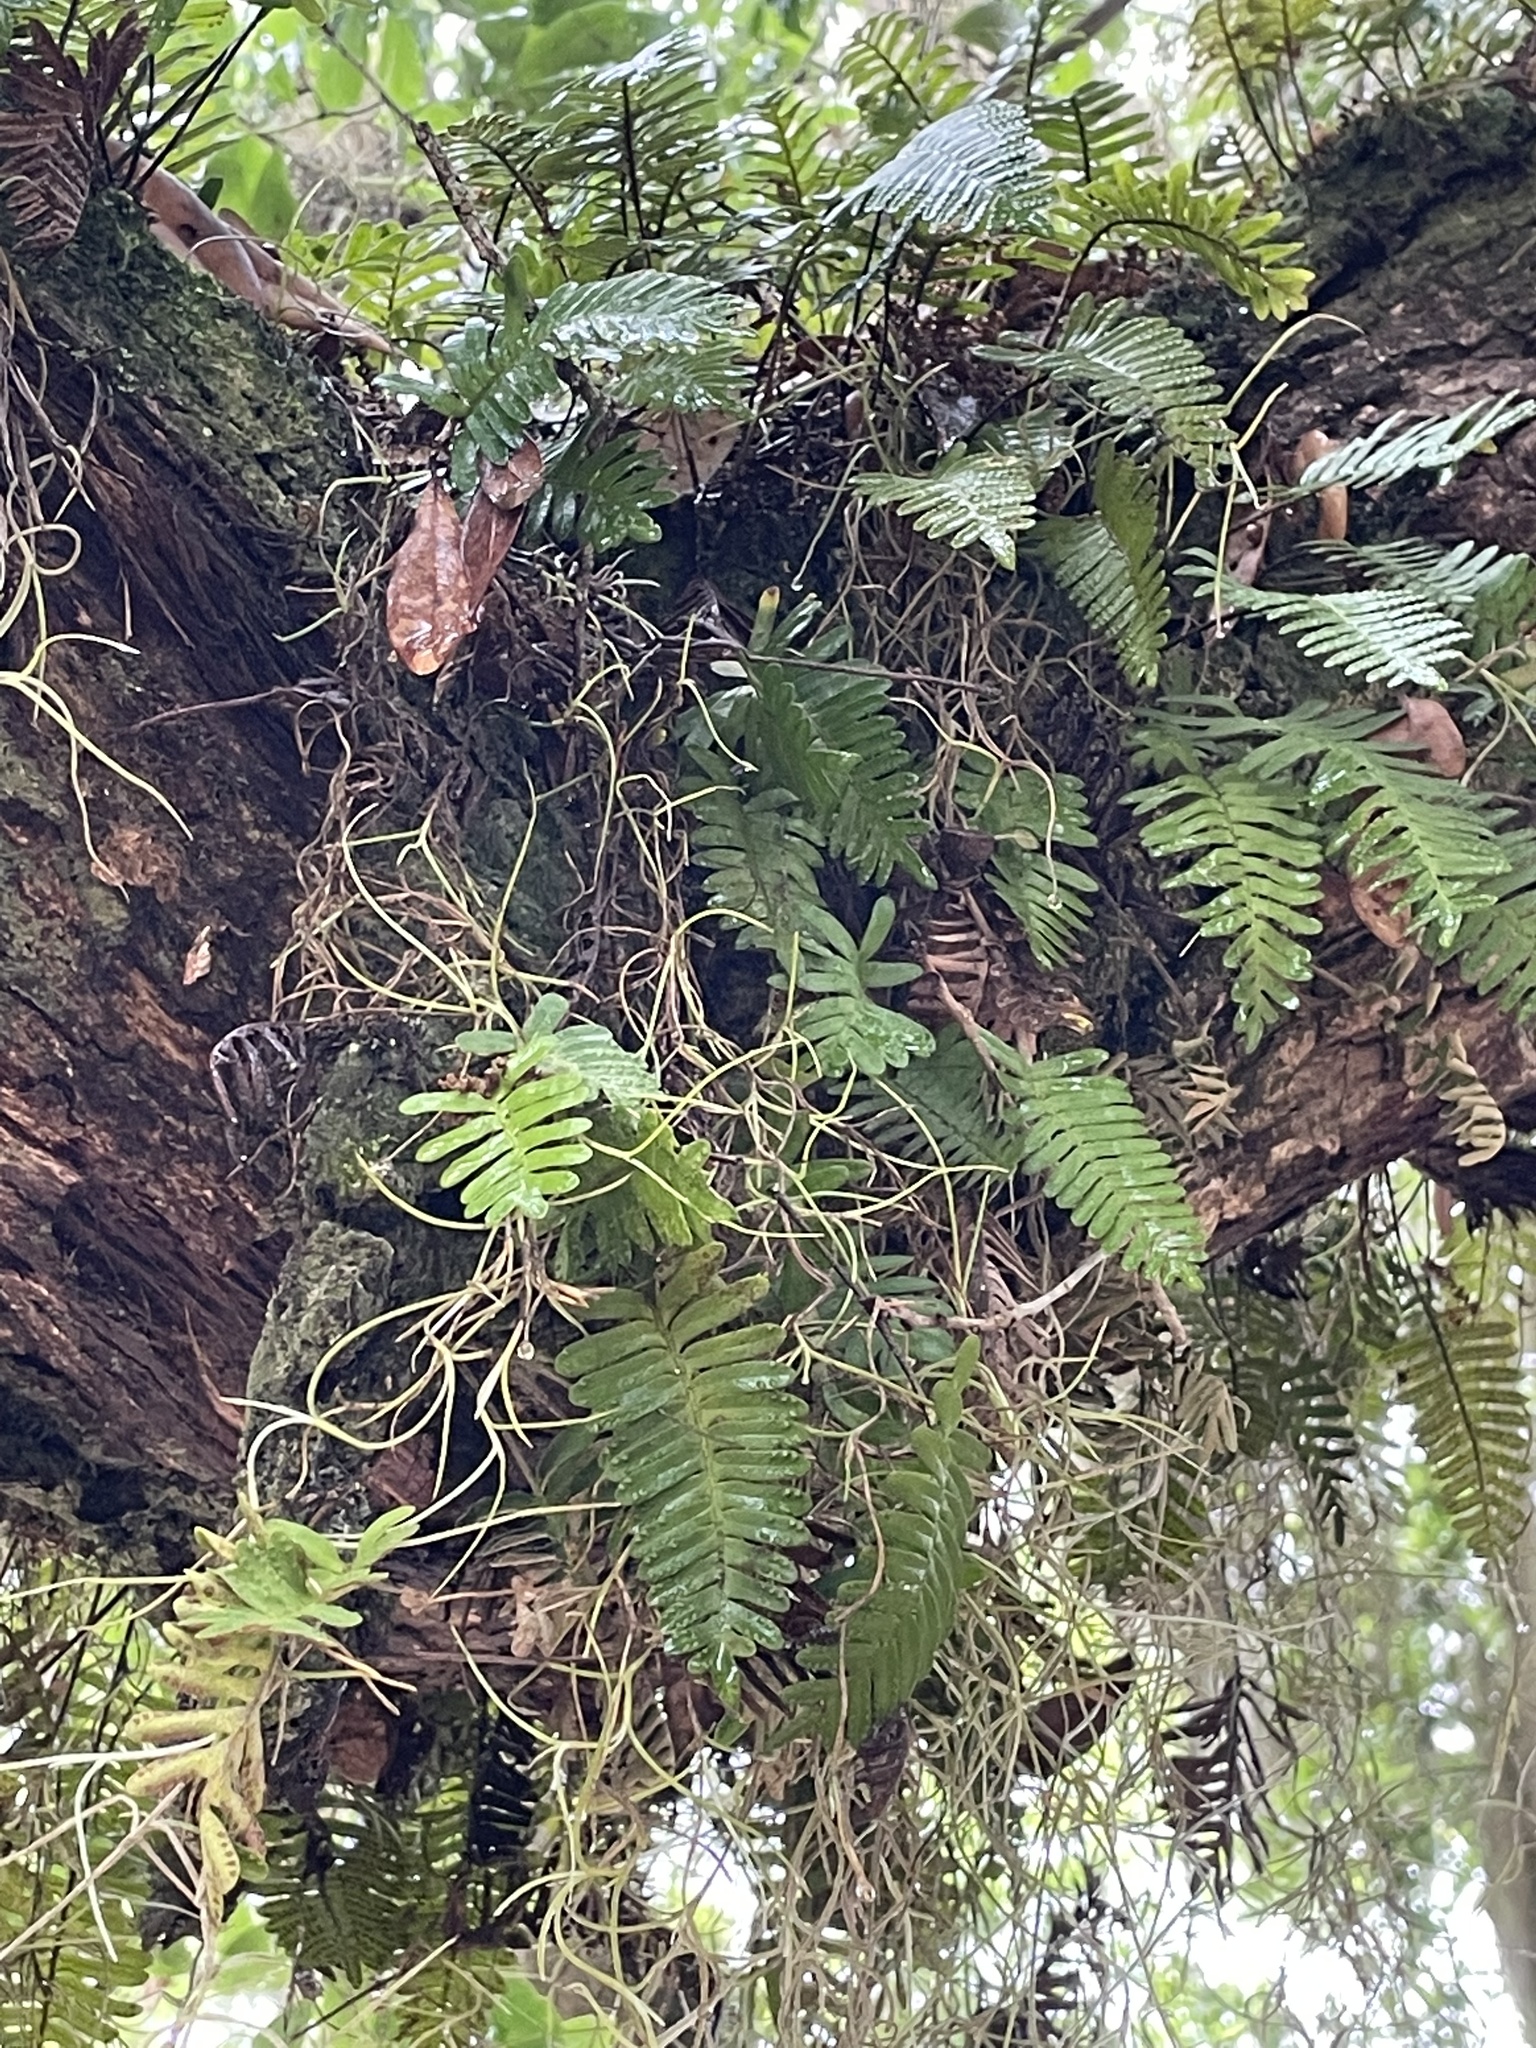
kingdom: Plantae
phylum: Tracheophyta
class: Polypodiopsida
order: Polypodiales
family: Polypodiaceae
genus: Pleopeltis
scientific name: Pleopeltis michauxiana
